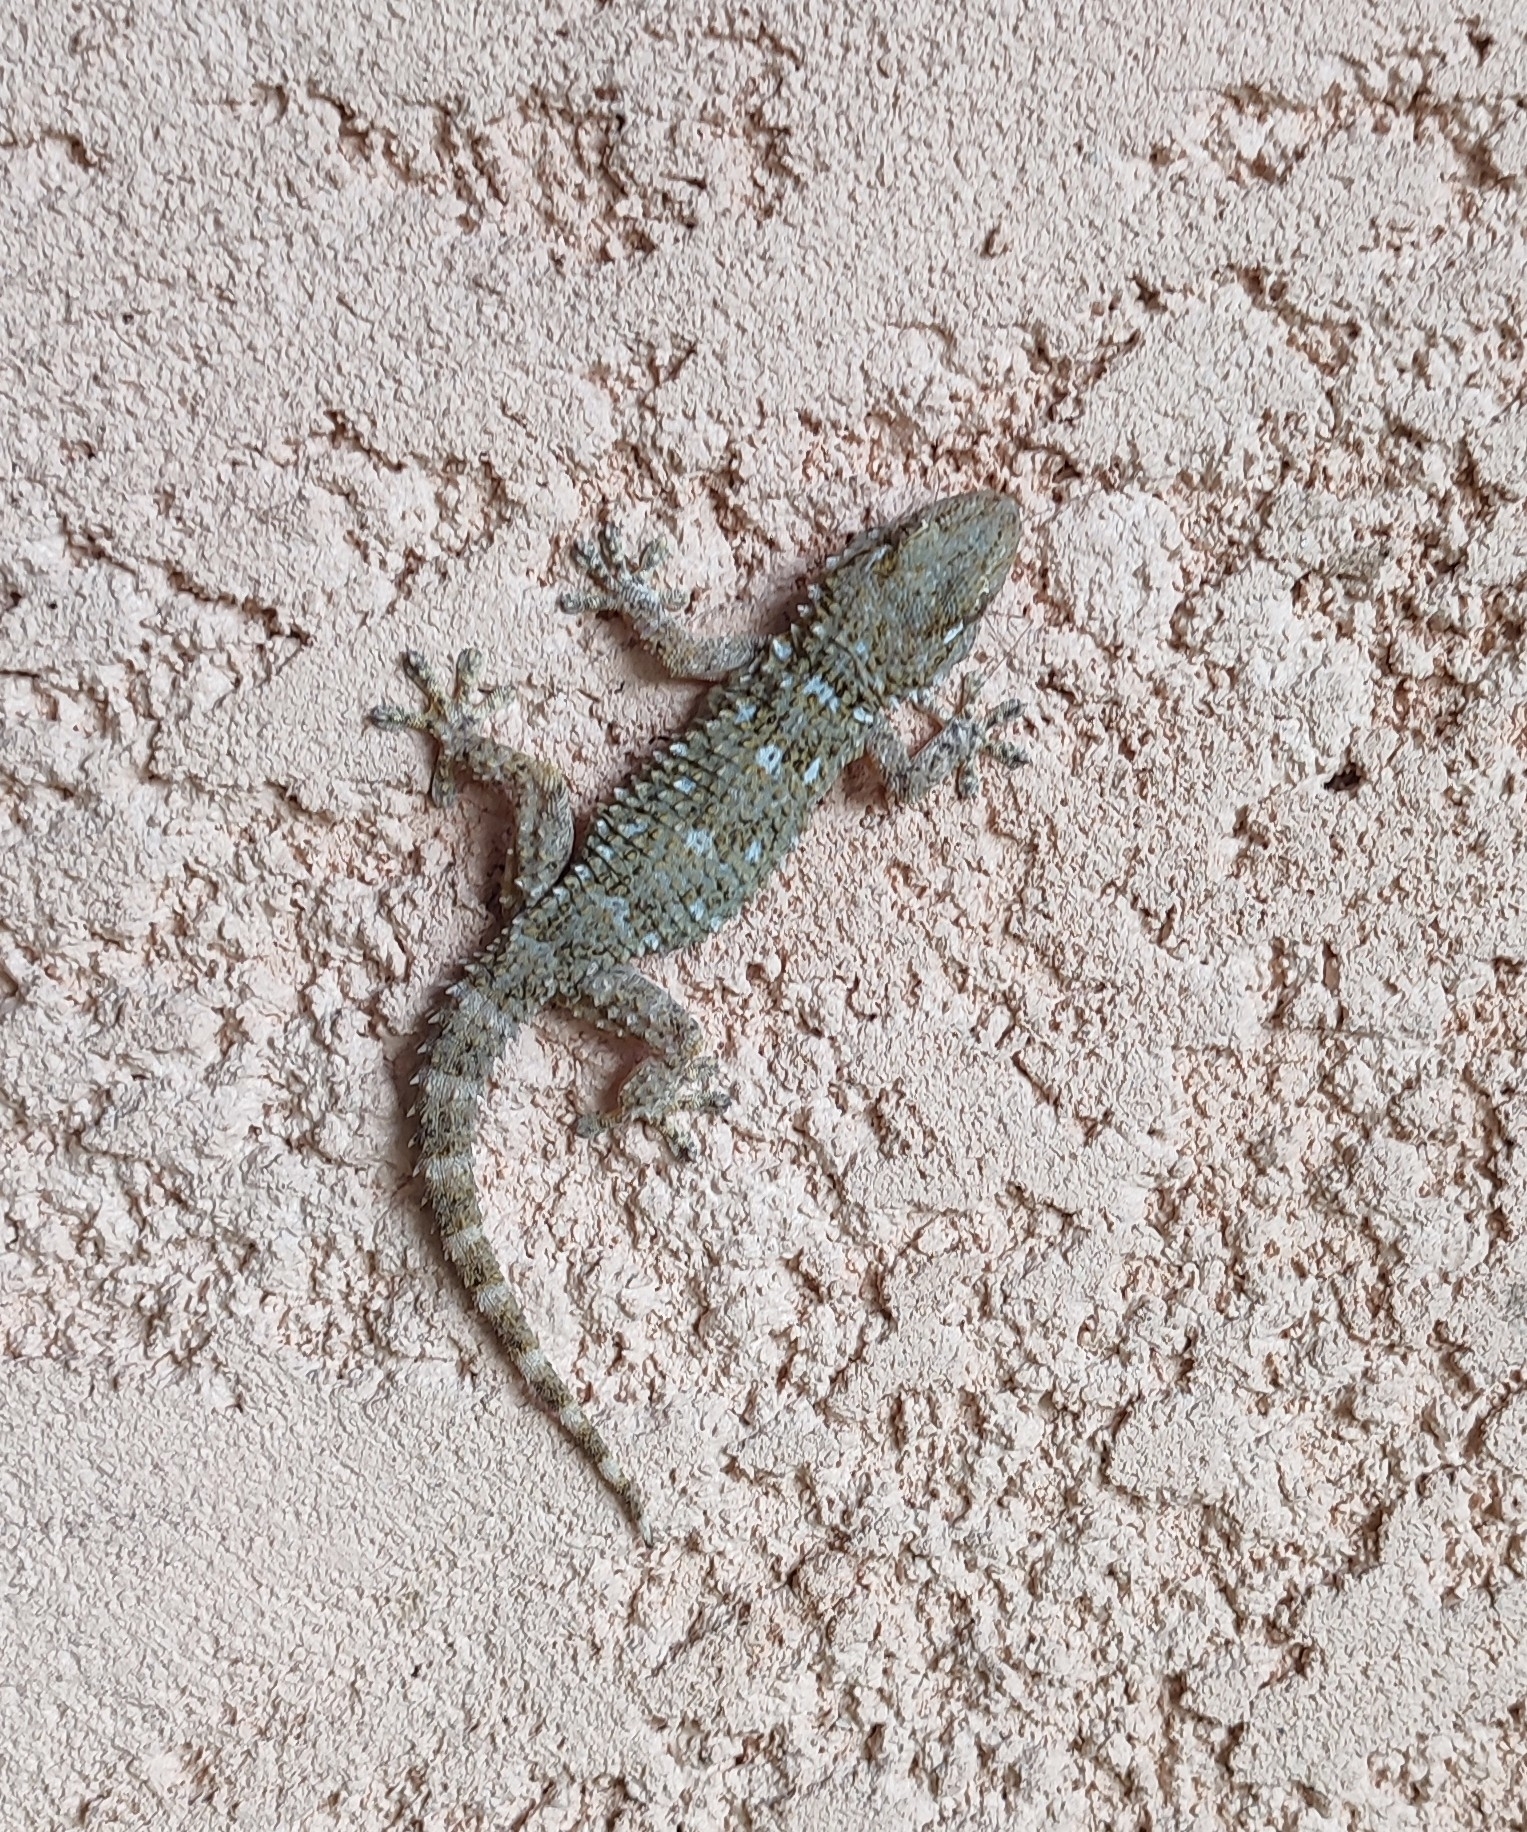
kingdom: Animalia
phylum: Chordata
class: Squamata
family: Phyllodactylidae
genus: Tarentola
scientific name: Tarentola mauritanica
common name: Moorish gecko
